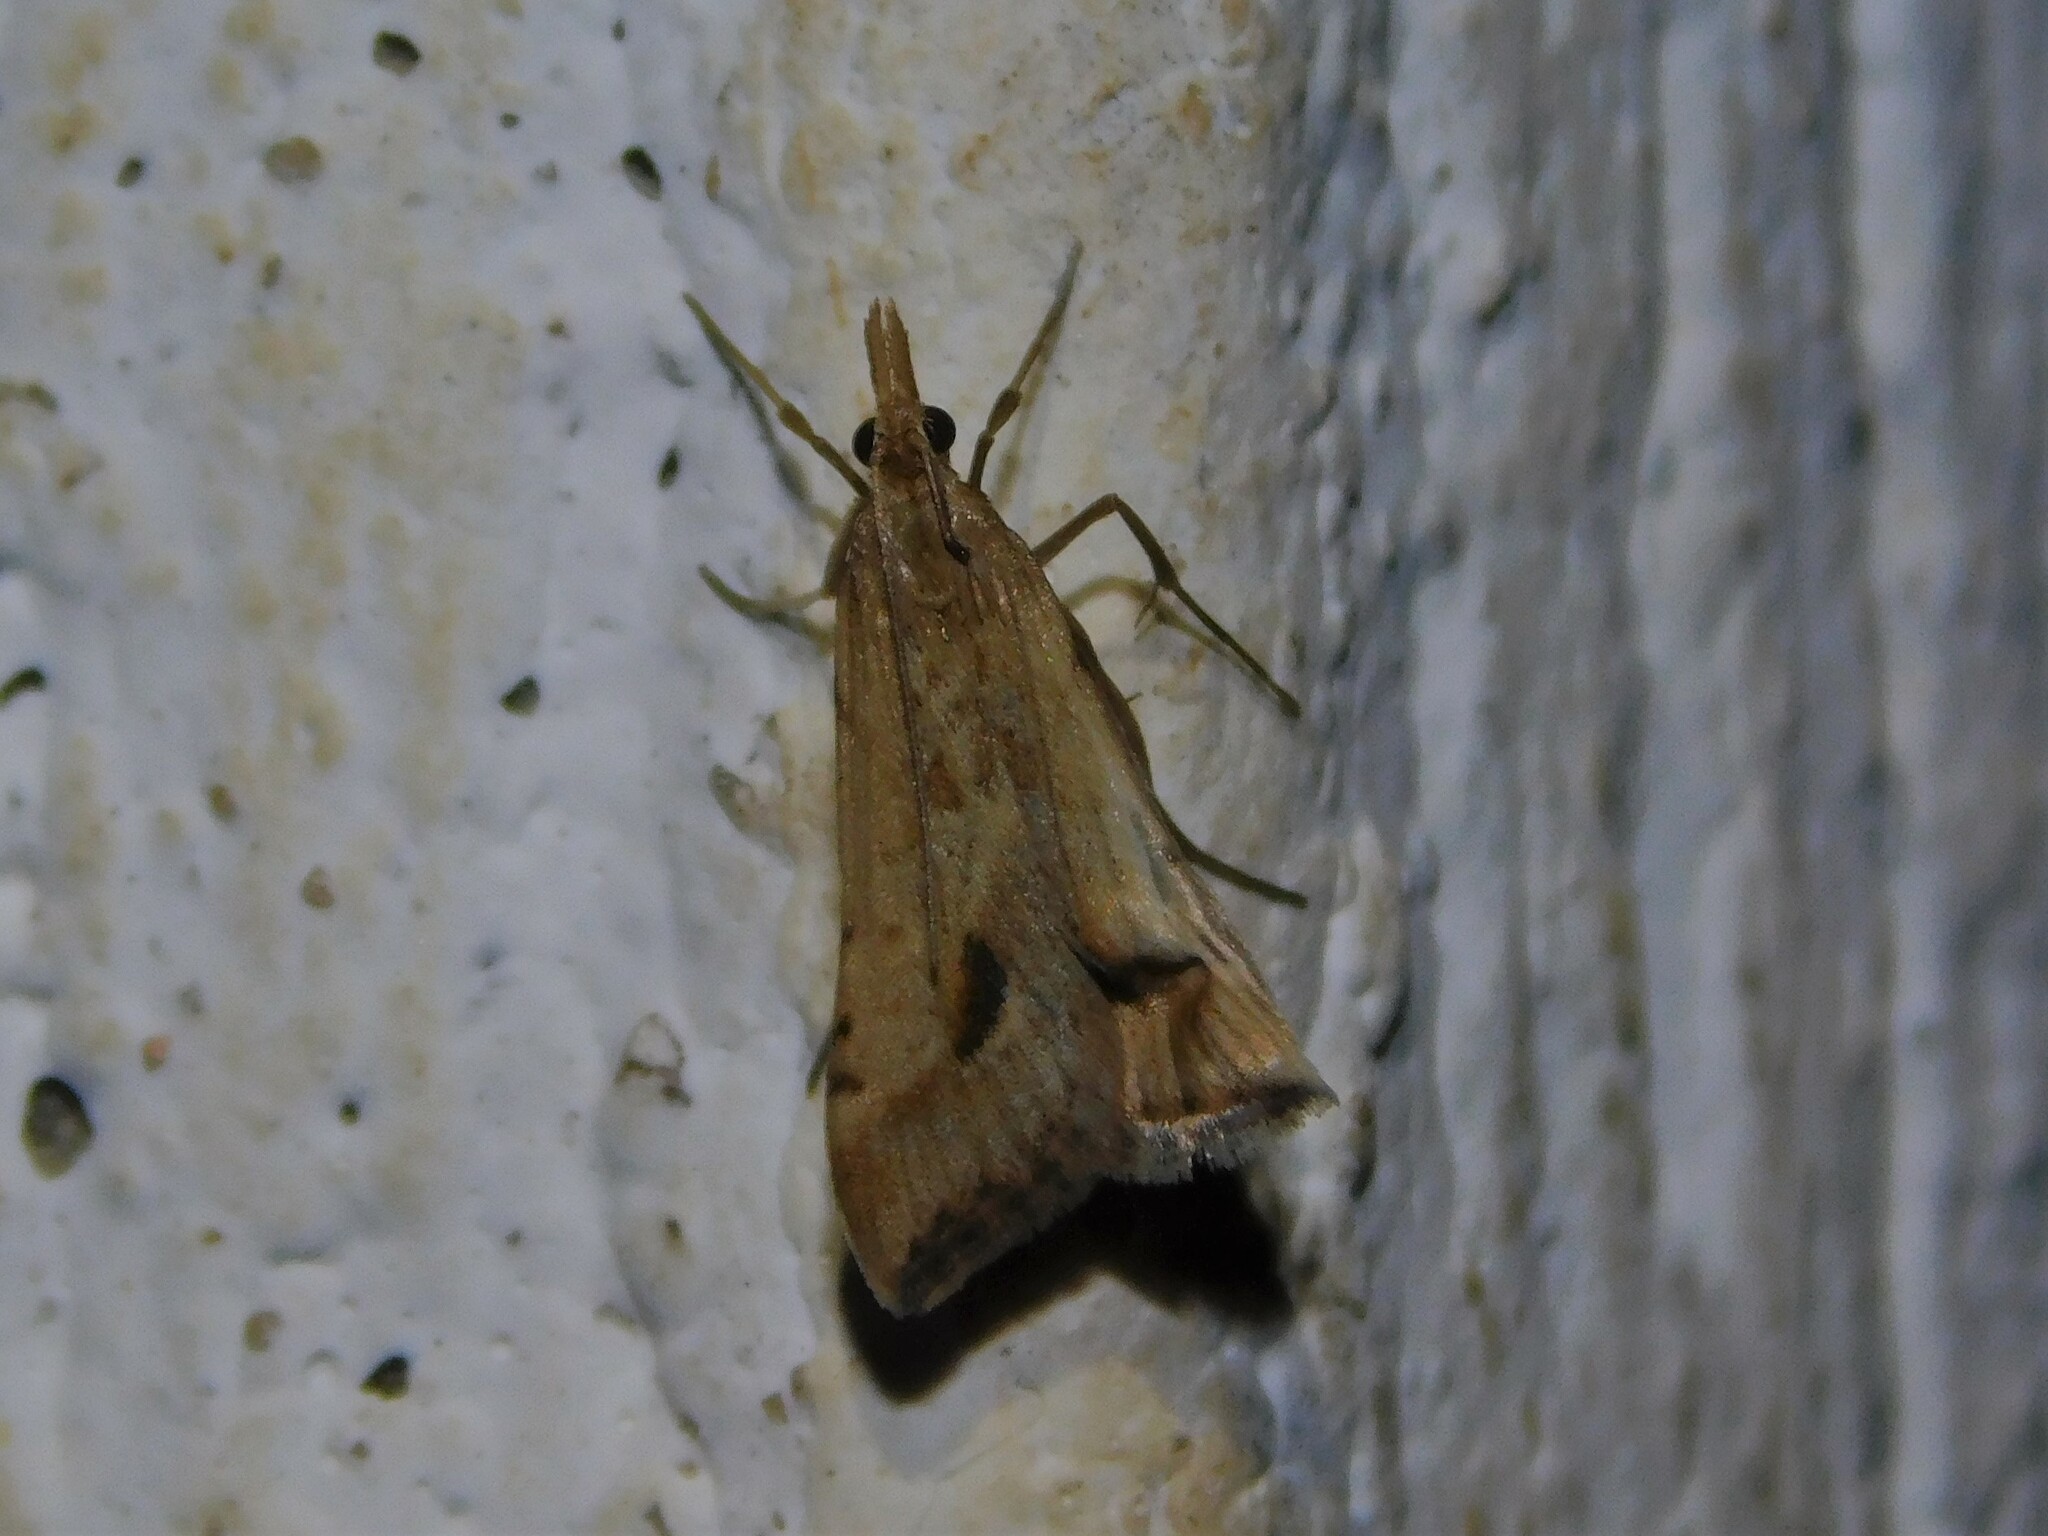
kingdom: Animalia
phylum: Arthropoda
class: Insecta
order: Lepidoptera
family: Crambidae
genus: Diasemia
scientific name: Diasemia monostigma
